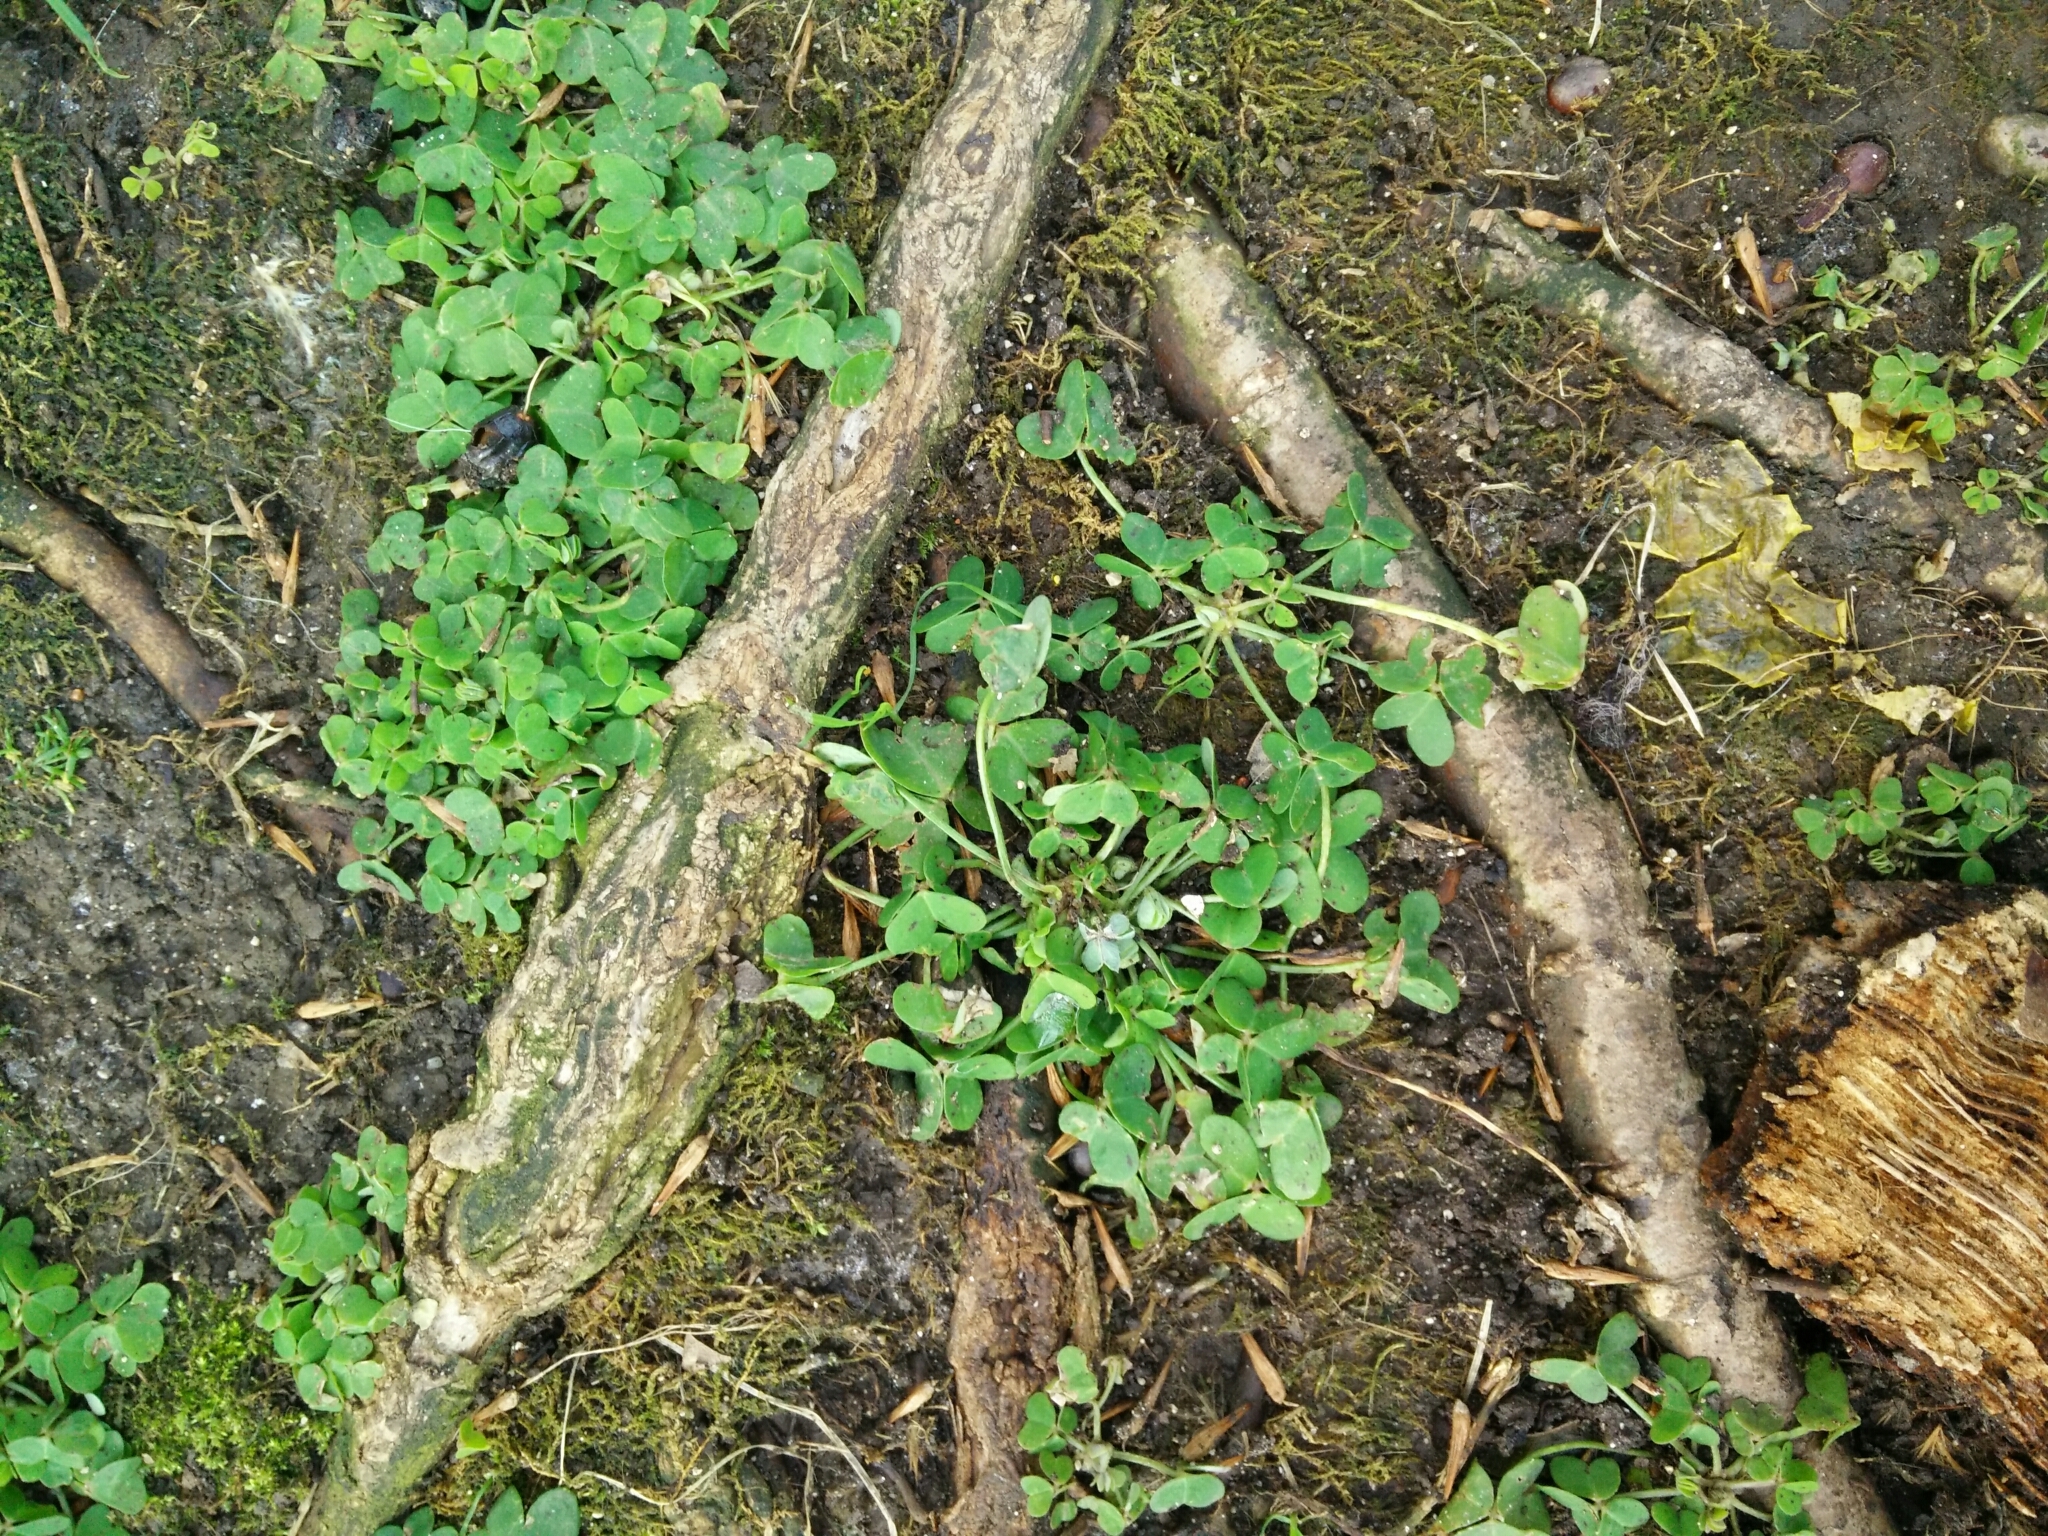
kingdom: Plantae
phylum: Tracheophyta
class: Magnoliopsida
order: Oxalidales
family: Oxalidaceae
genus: Oxalis
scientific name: Oxalis pes-caprae
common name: Bermuda-buttercup
